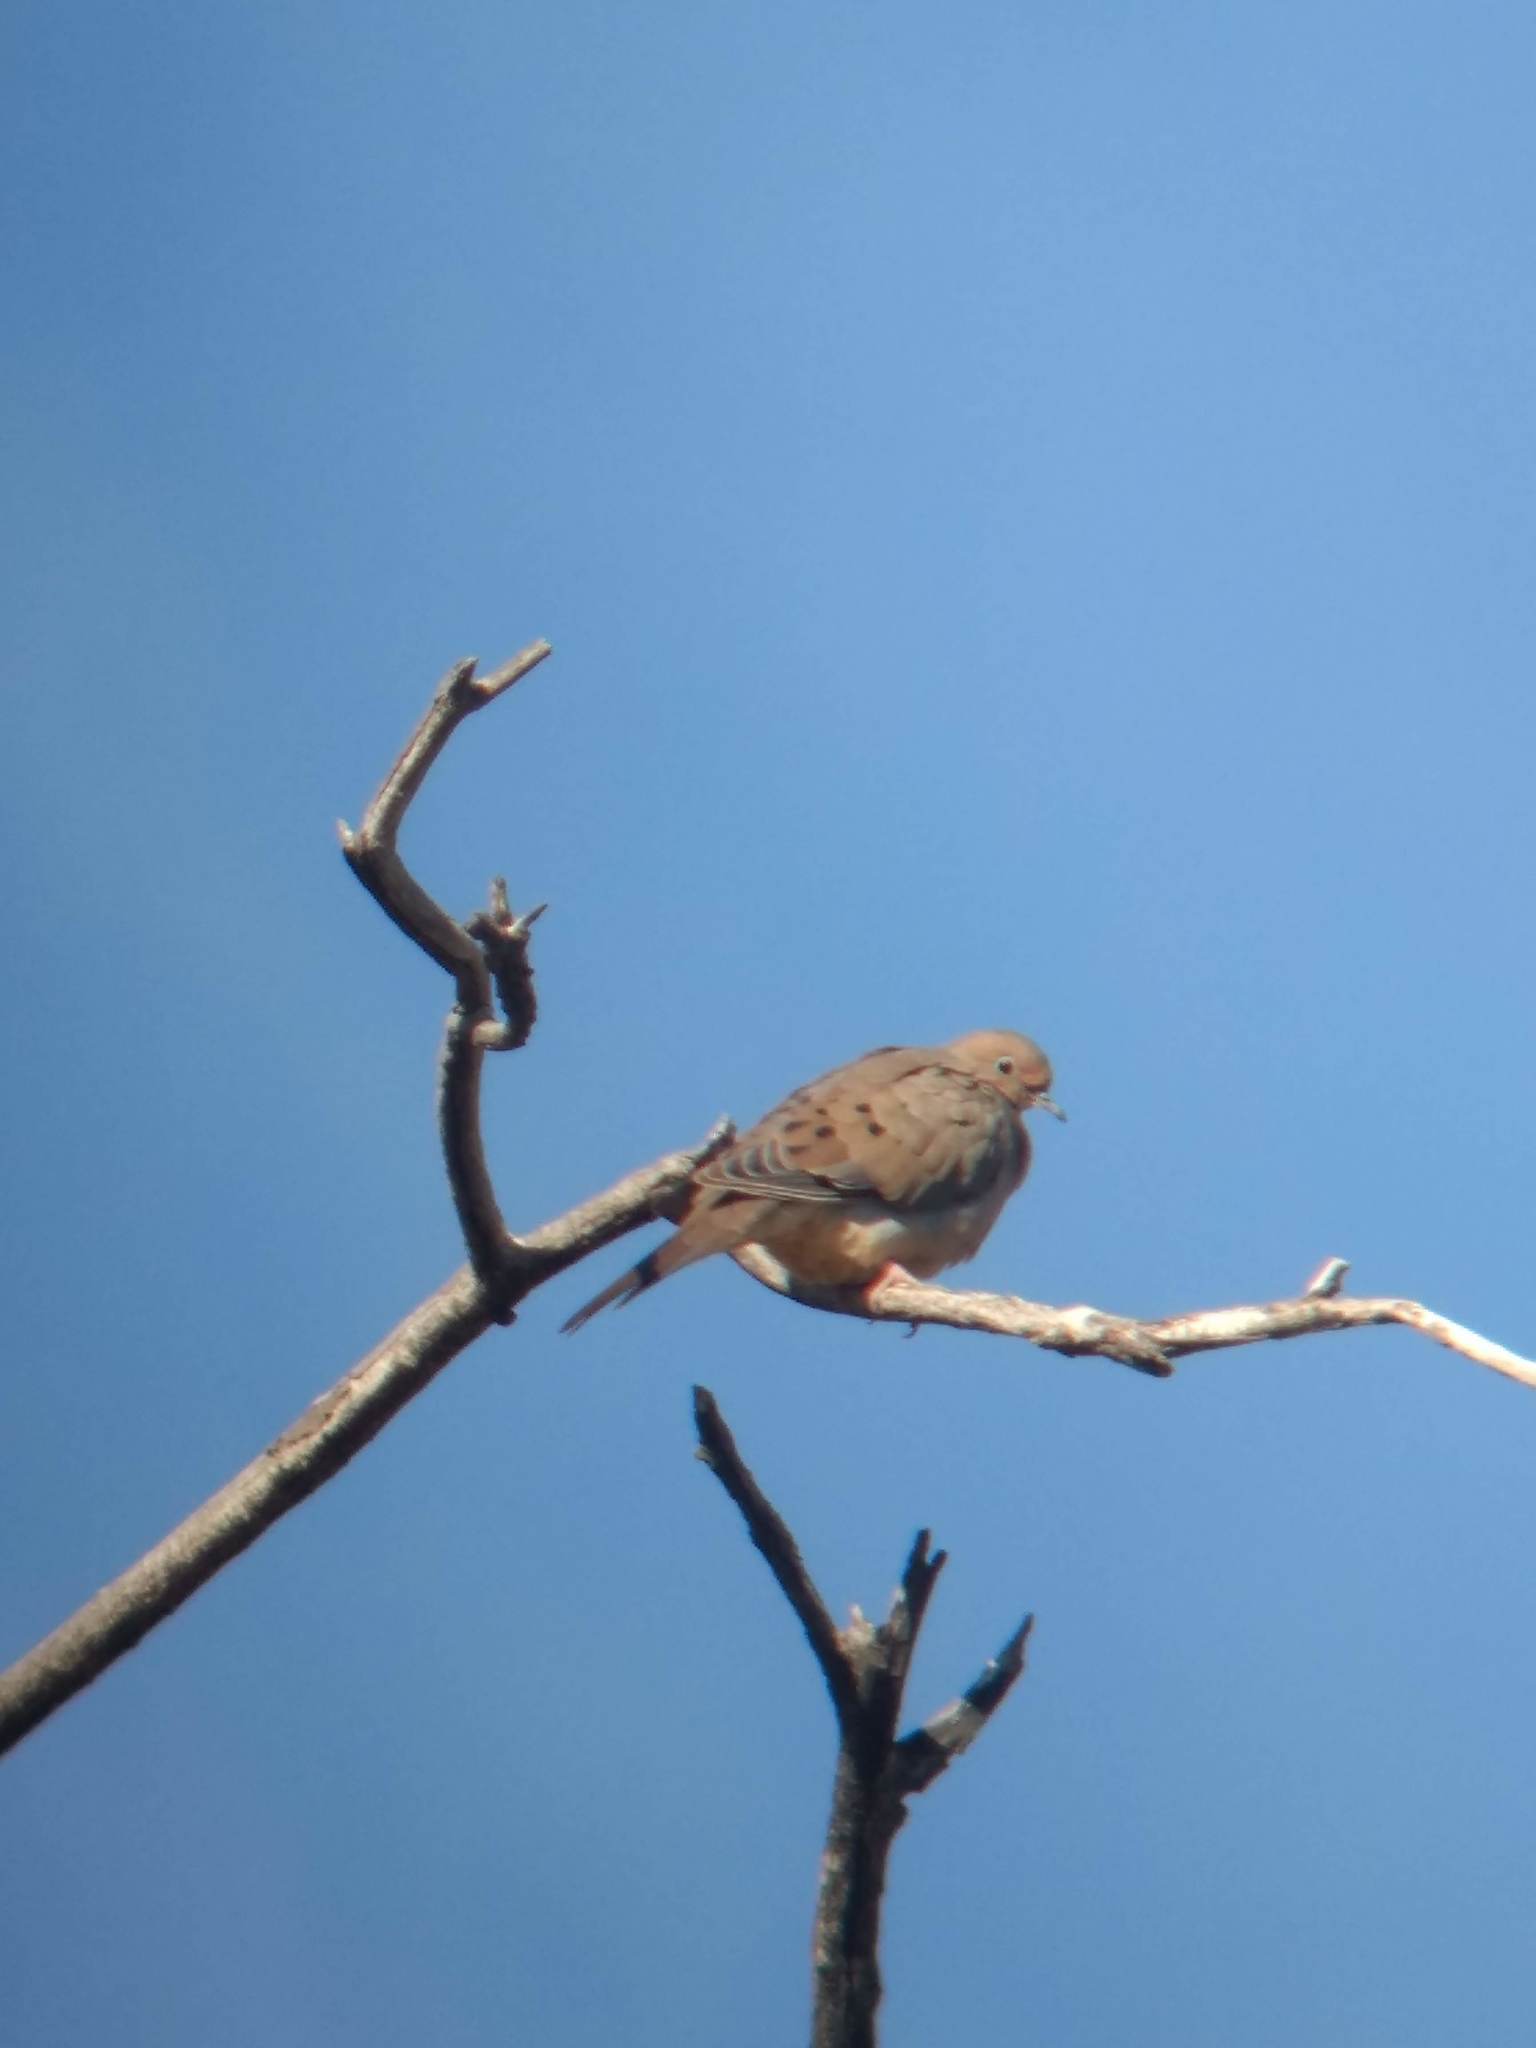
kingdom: Animalia
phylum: Chordata
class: Aves
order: Columbiformes
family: Columbidae
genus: Zenaida
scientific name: Zenaida macroura
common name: Mourning dove
